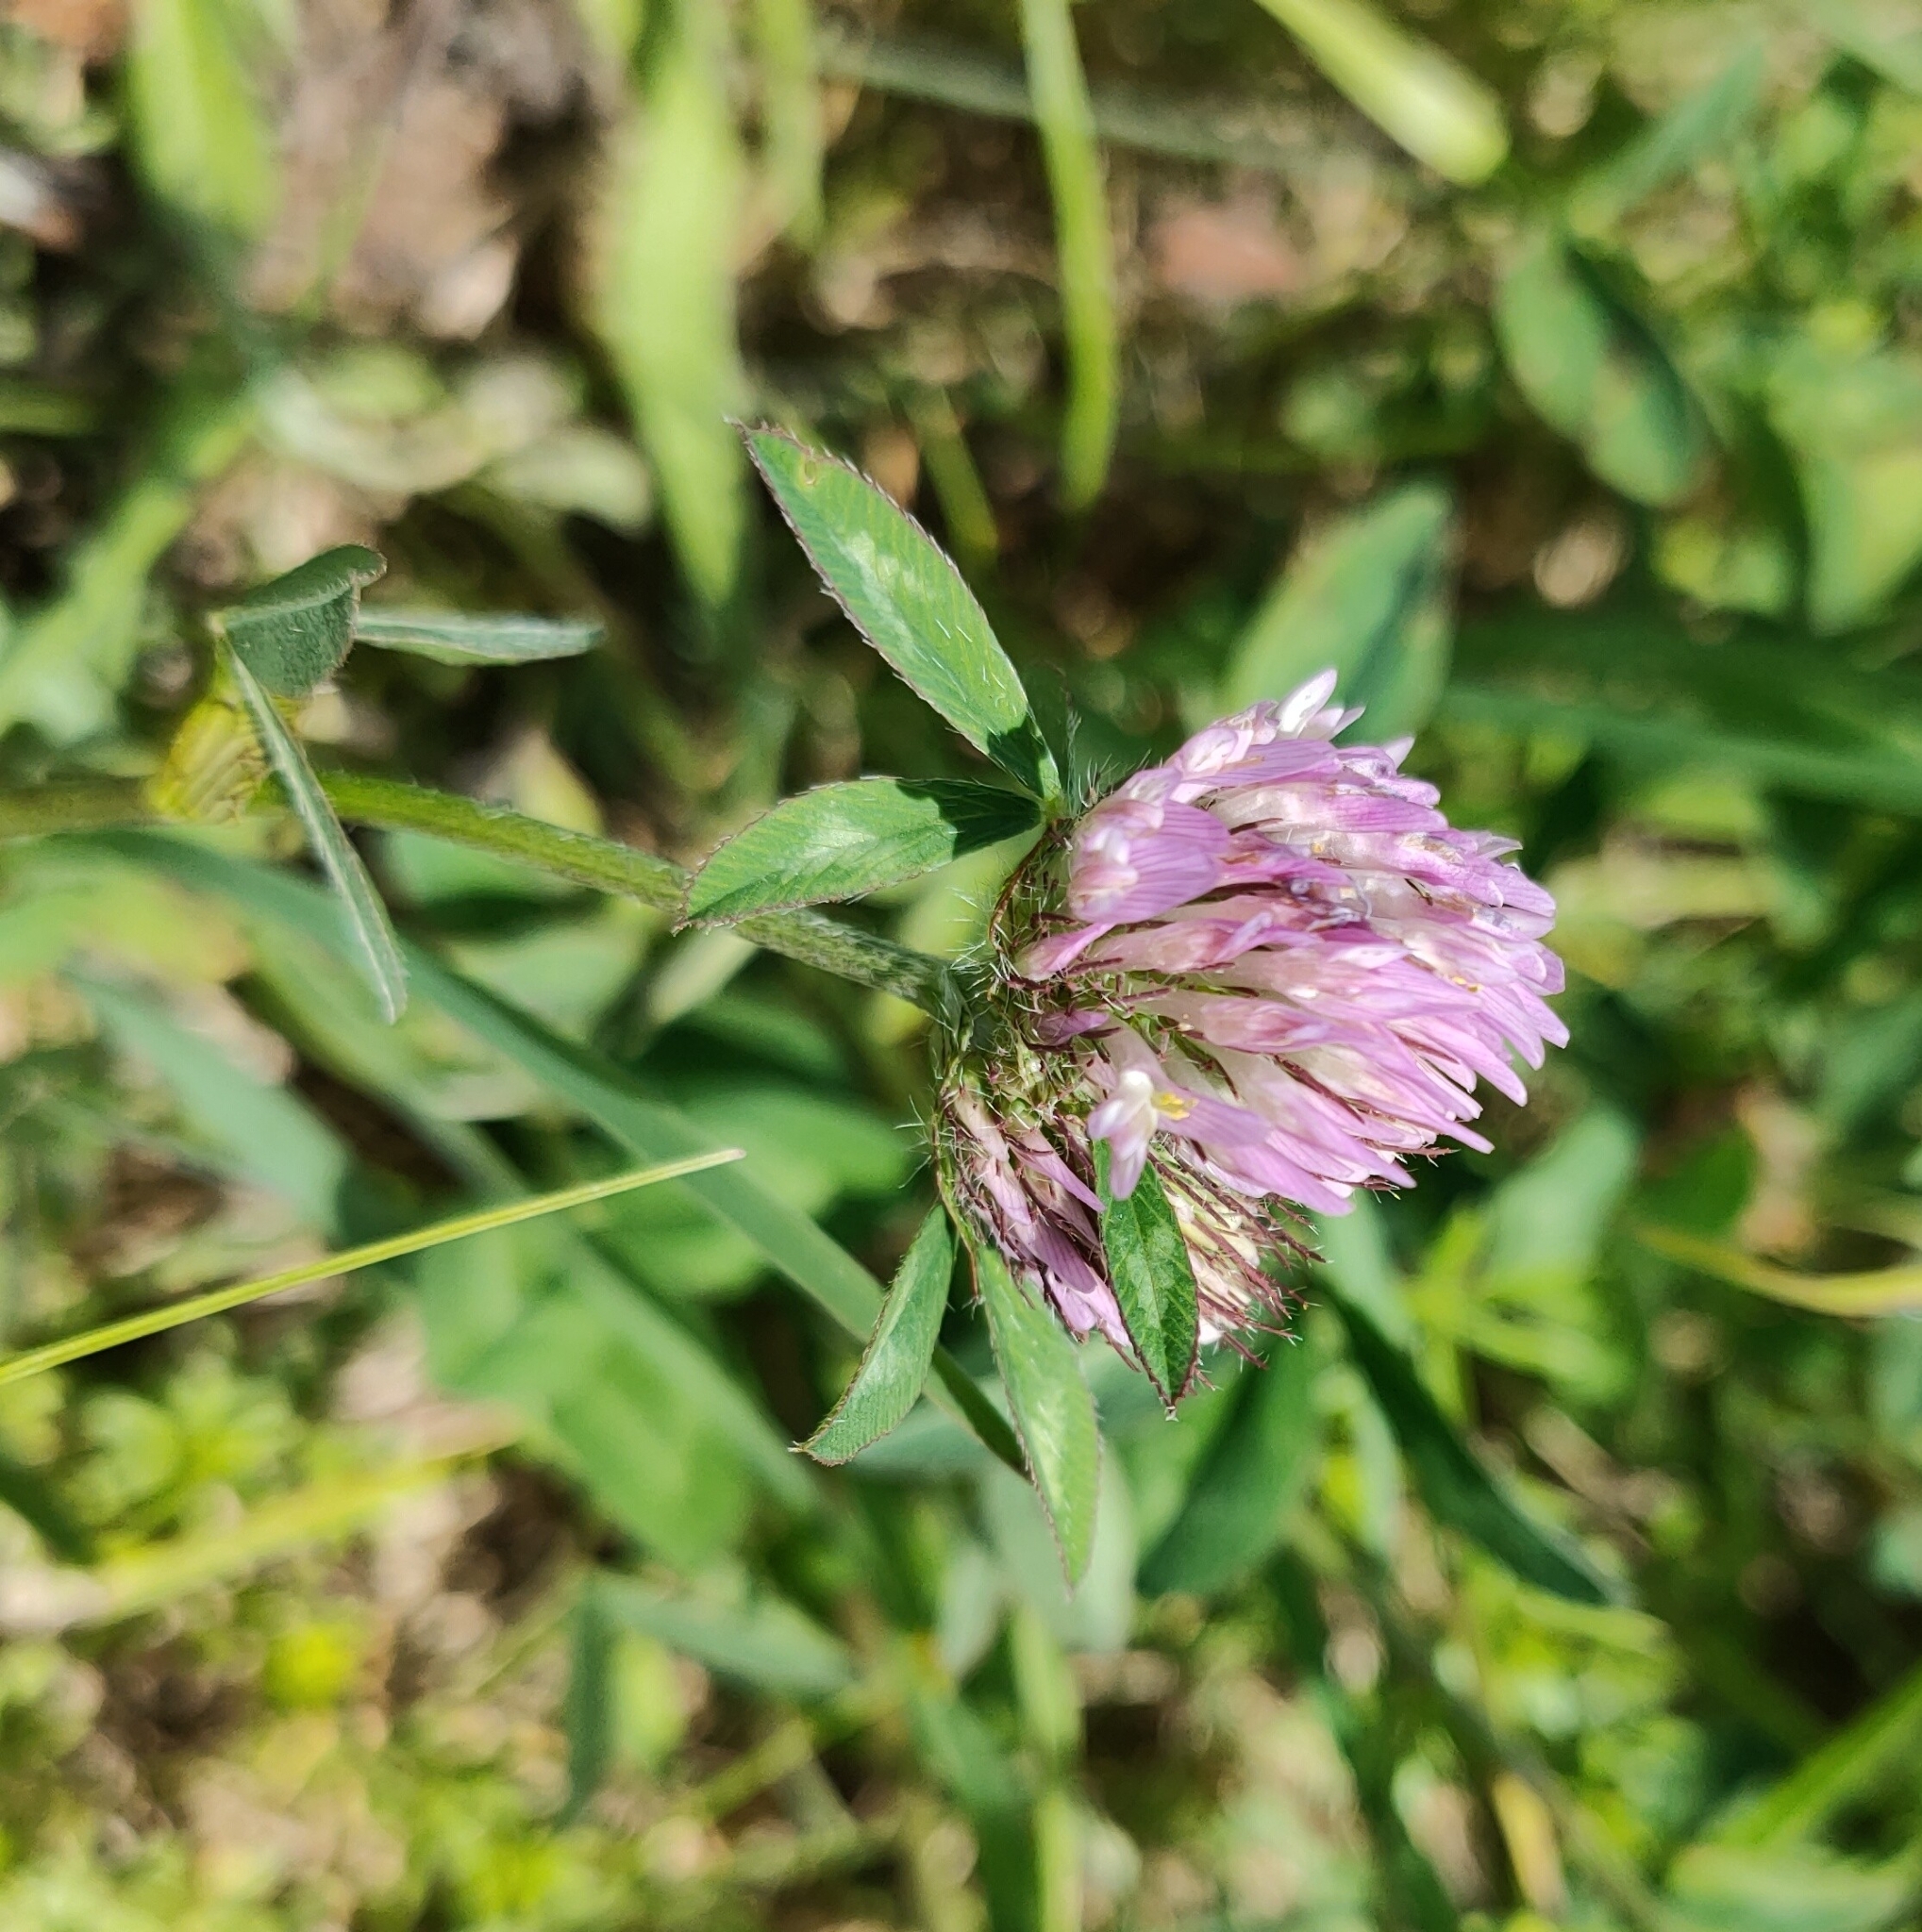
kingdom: Plantae
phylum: Tracheophyta
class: Magnoliopsida
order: Fabales
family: Fabaceae
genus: Trifolium
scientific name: Trifolium pratense
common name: Red clover
